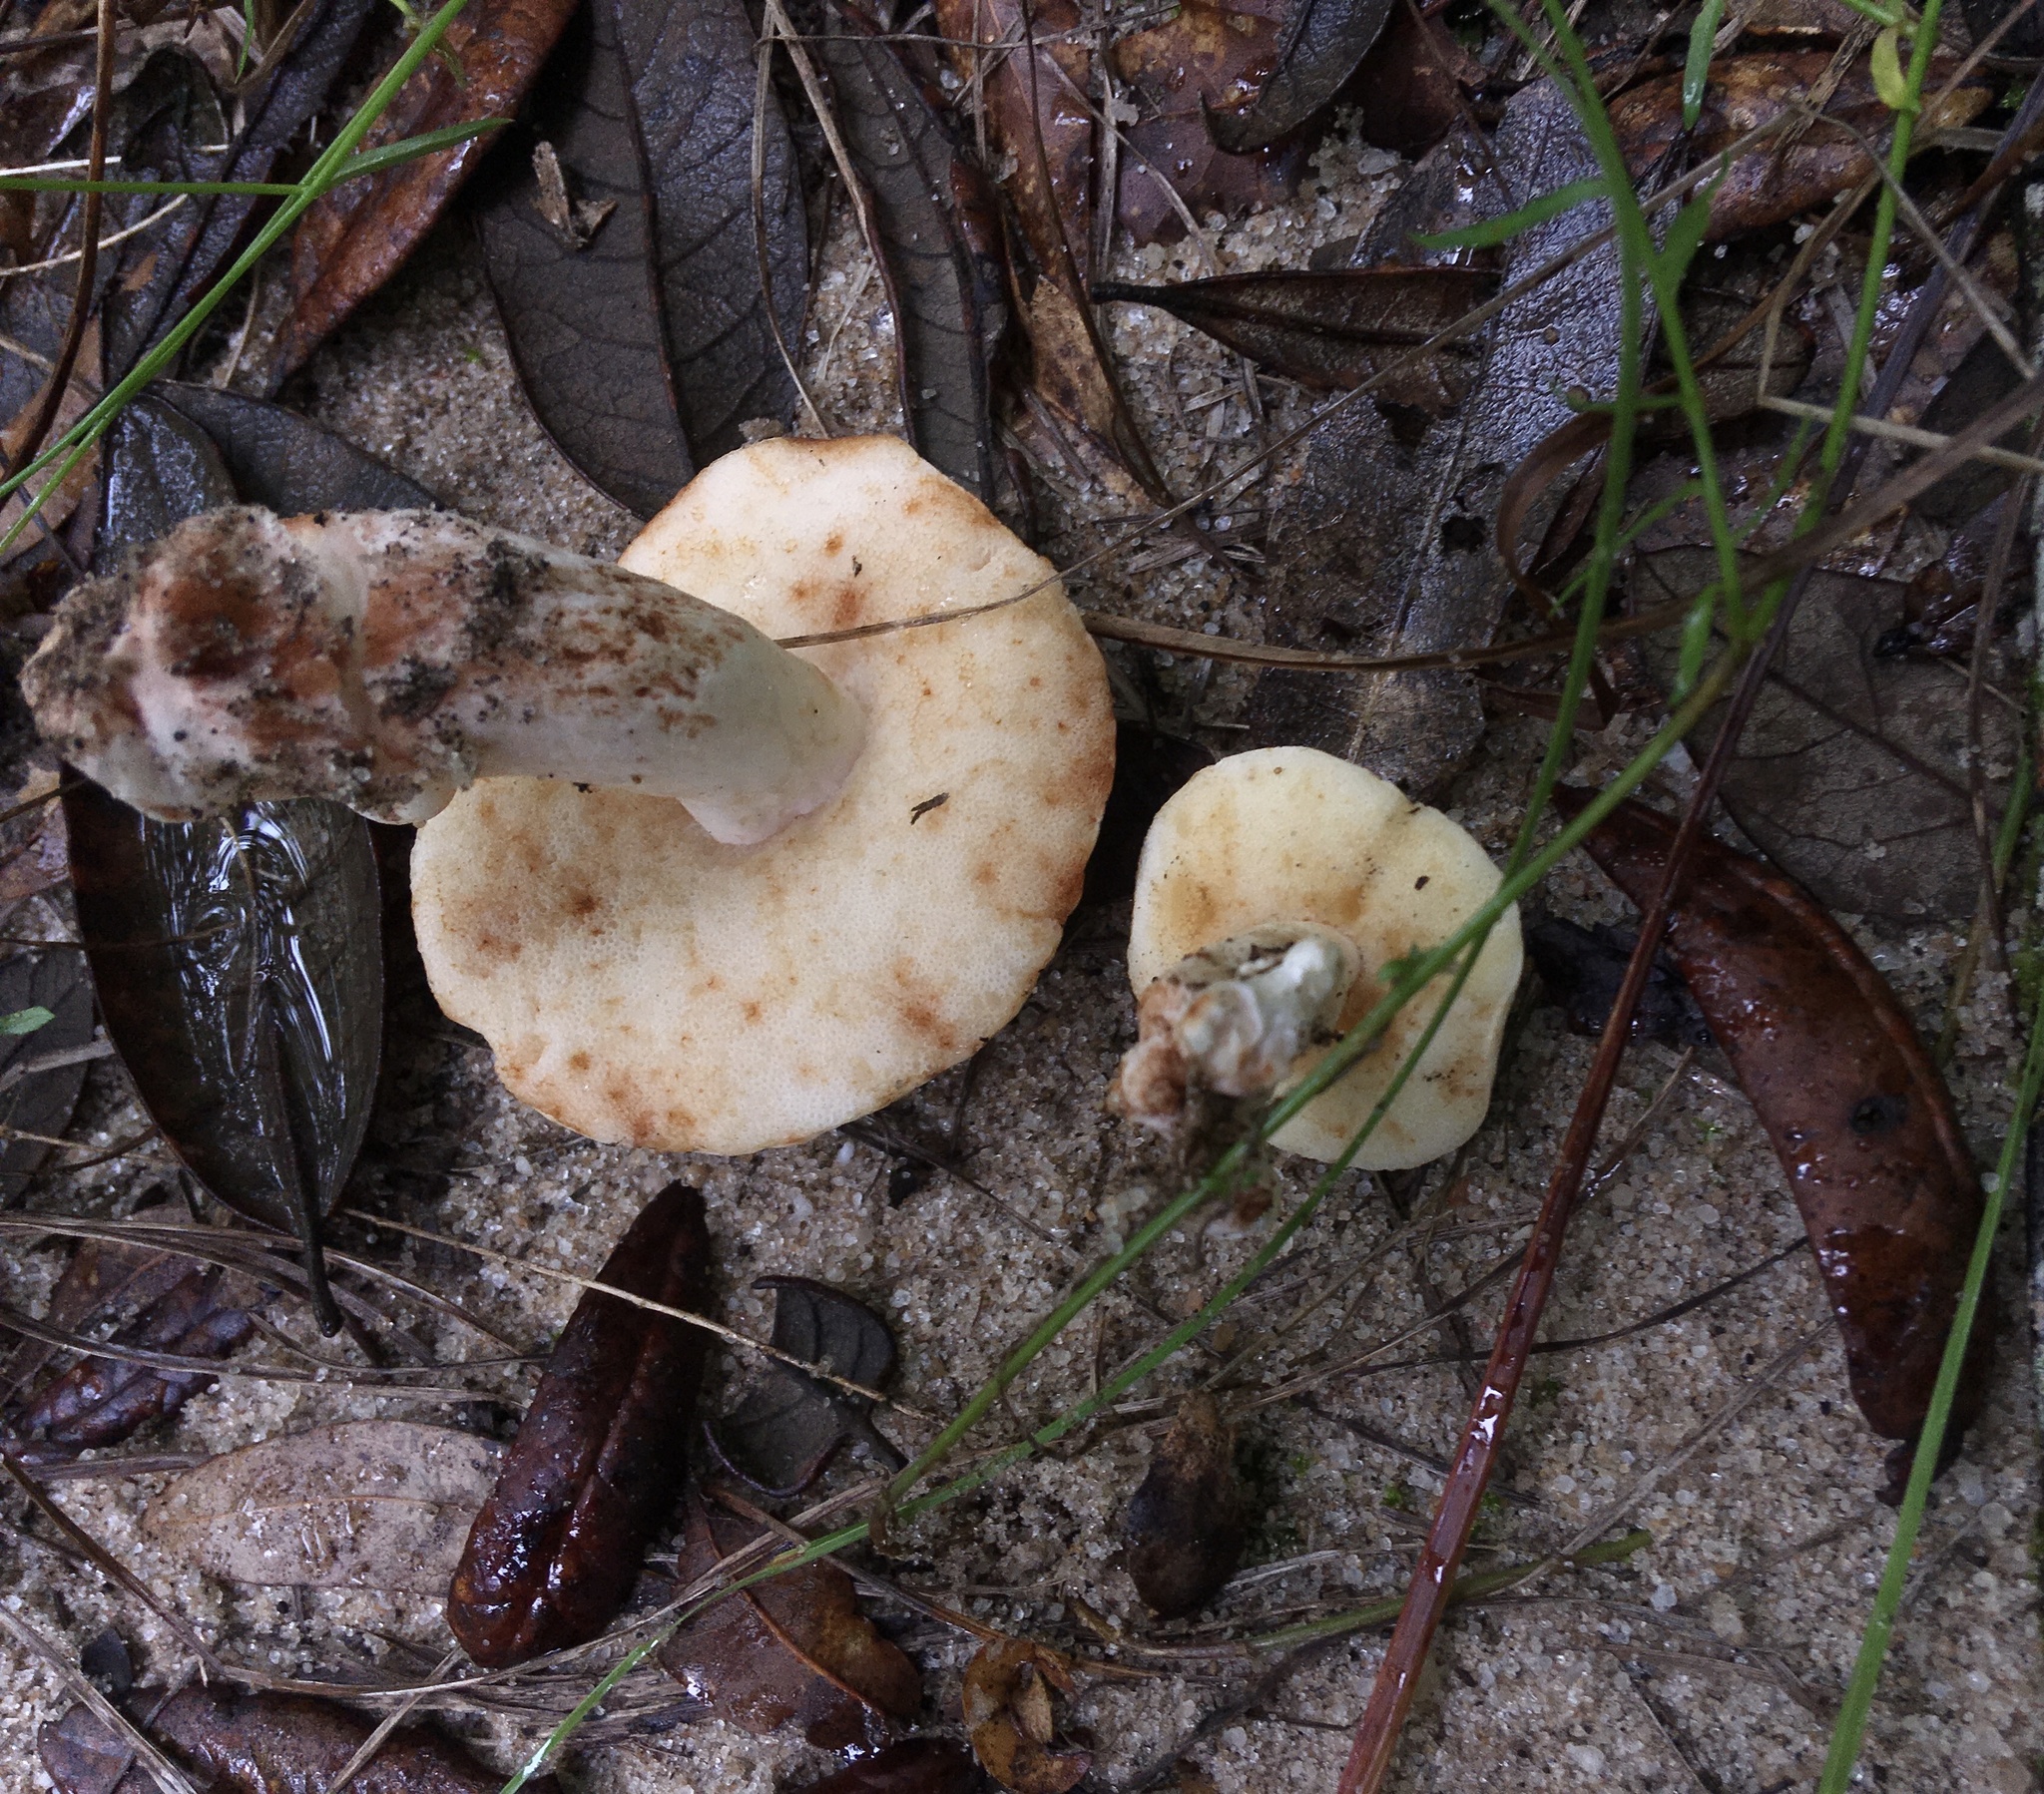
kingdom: Fungi
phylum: Basidiomycota
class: Agaricomycetes
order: Boletales
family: Gyroporaceae
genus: Gyroporus
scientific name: Gyroporus roseialbus
